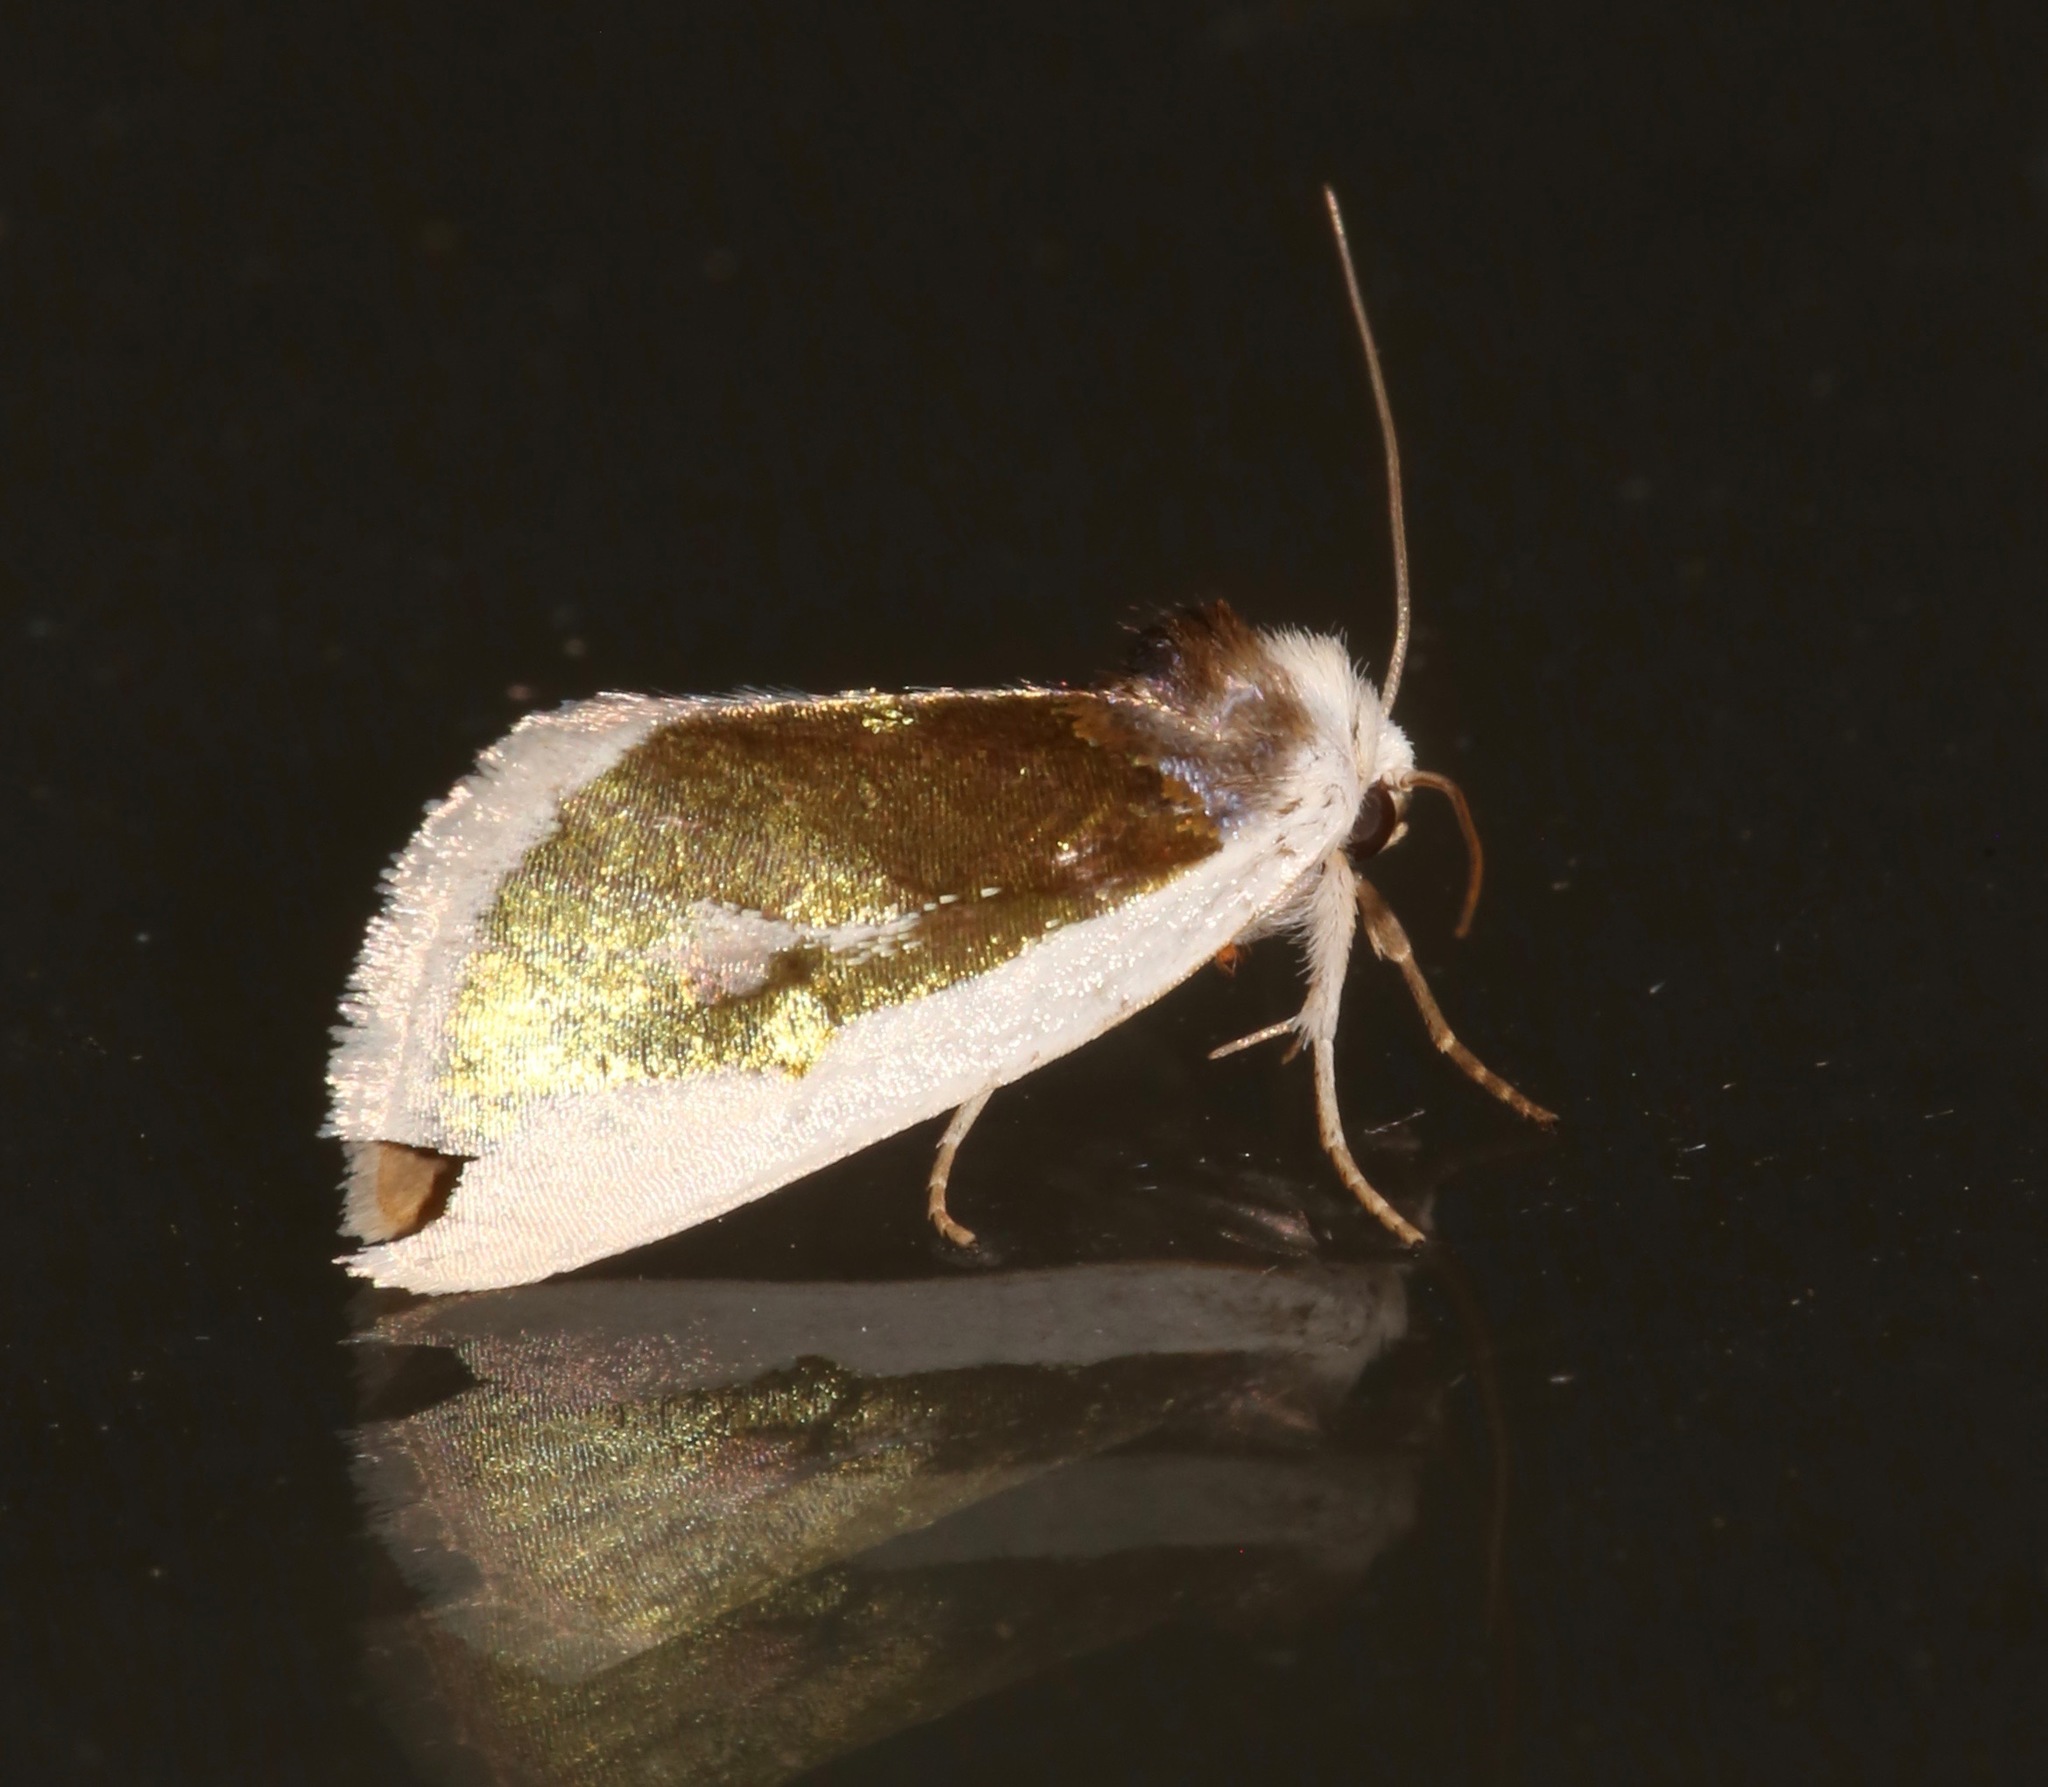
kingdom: Animalia
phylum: Arthropoda
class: Insecta
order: Lepidoptera
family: Noctuidae
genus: Neumoegenia
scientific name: Neumoegenia poetica
